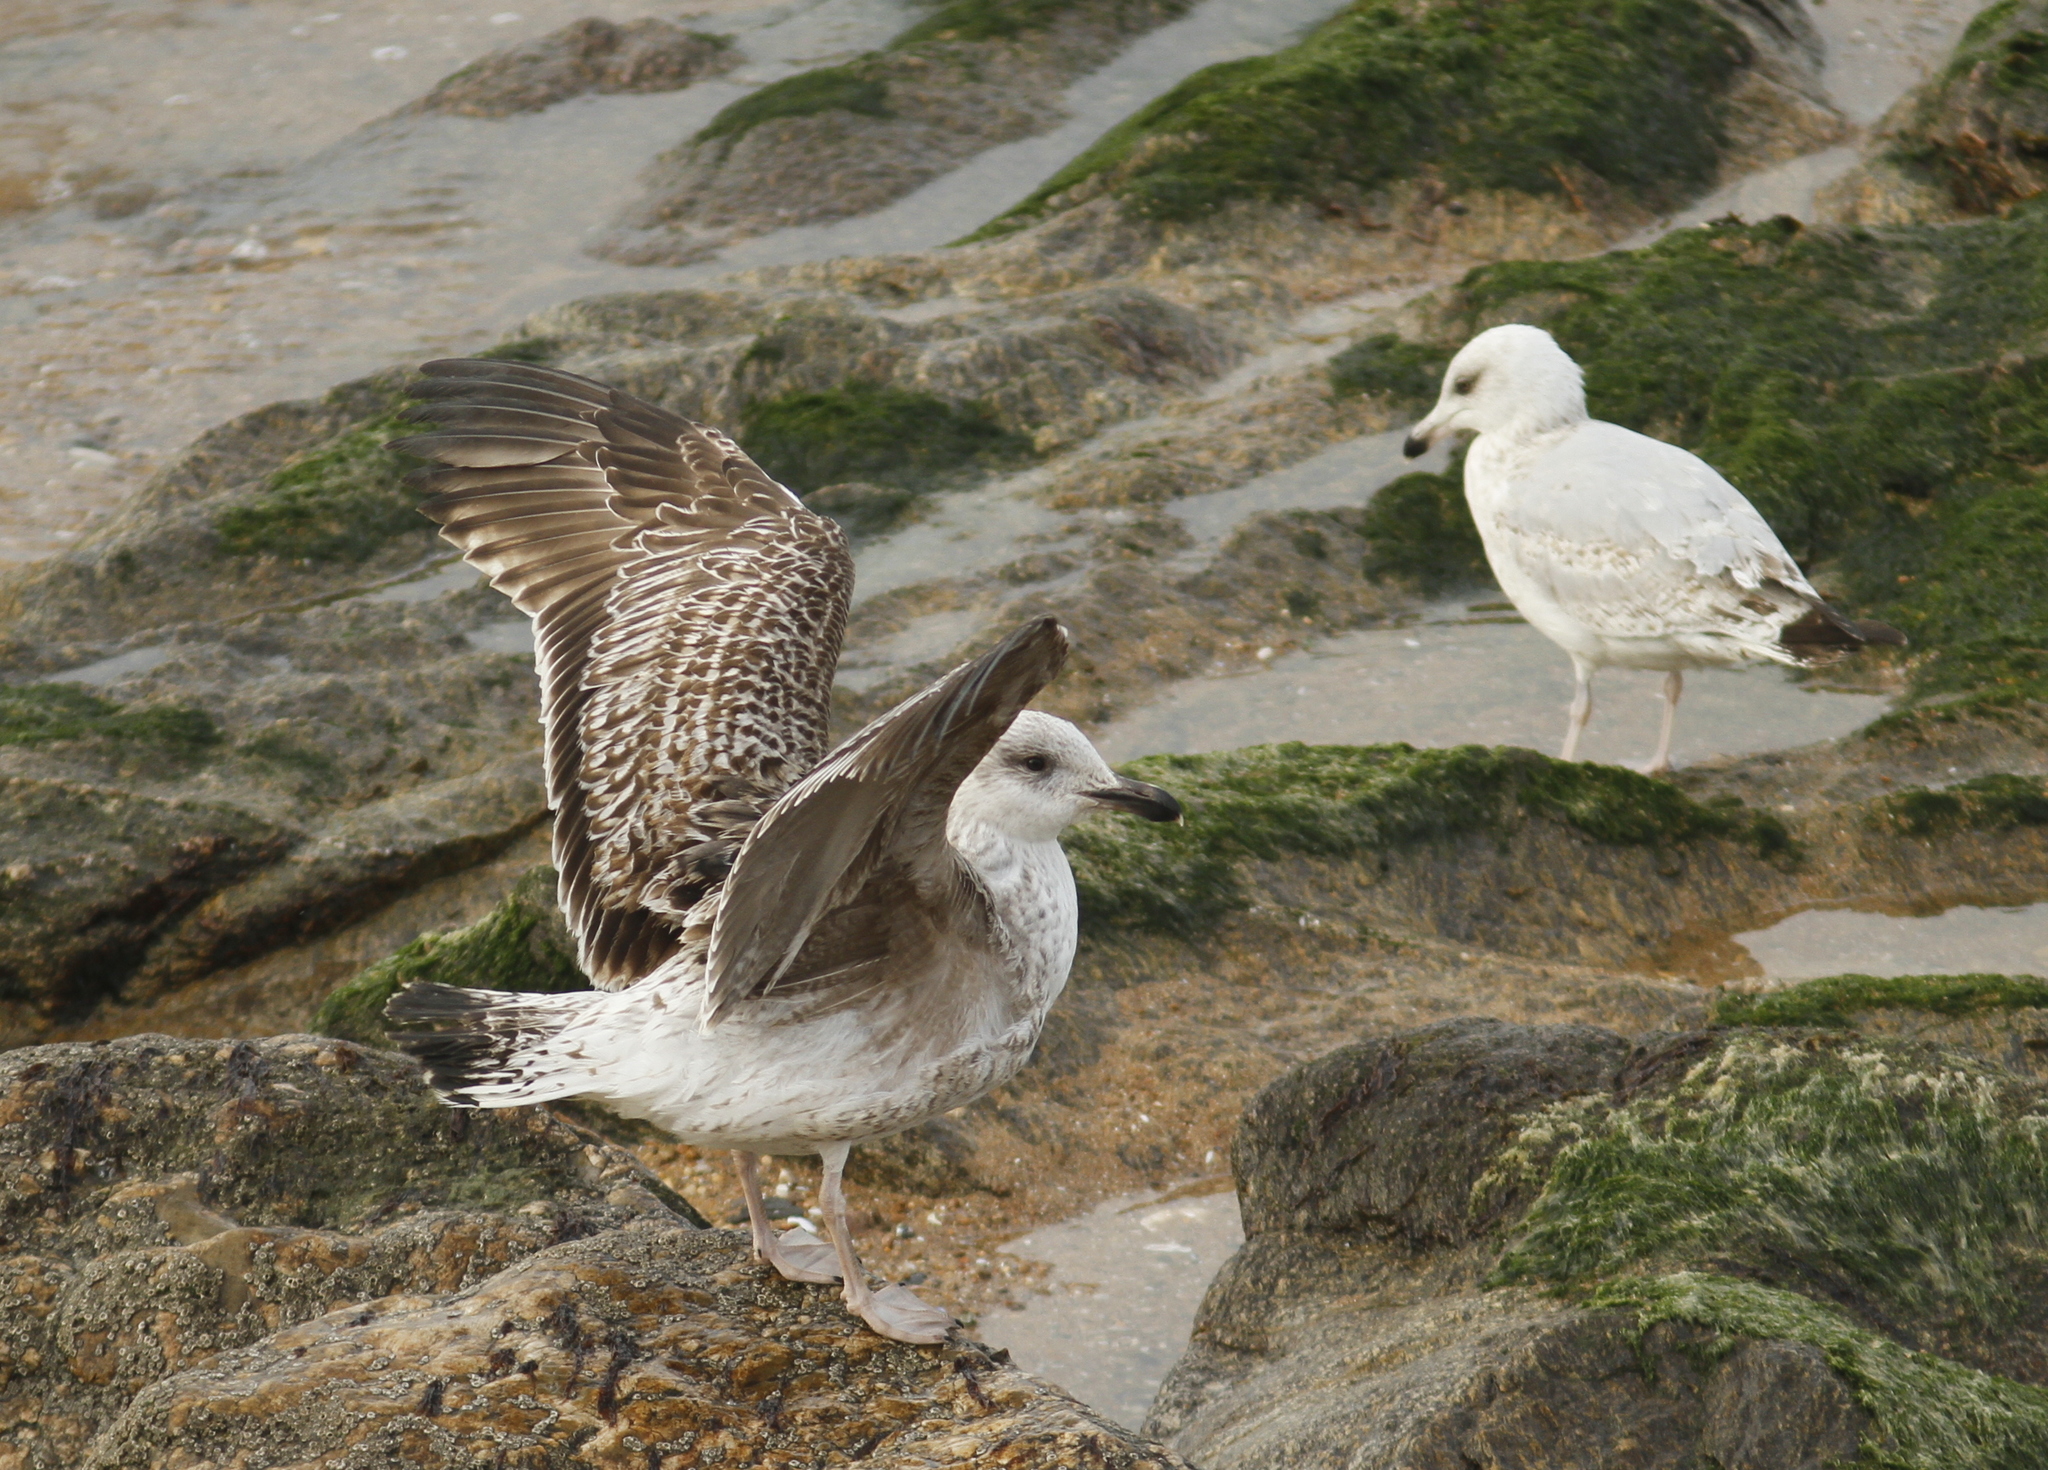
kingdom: Animalia
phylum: Chordata
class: Aves
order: Charadriiformes
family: Laridae
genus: Larus
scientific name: Larus marinus
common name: Great black-backed gull
